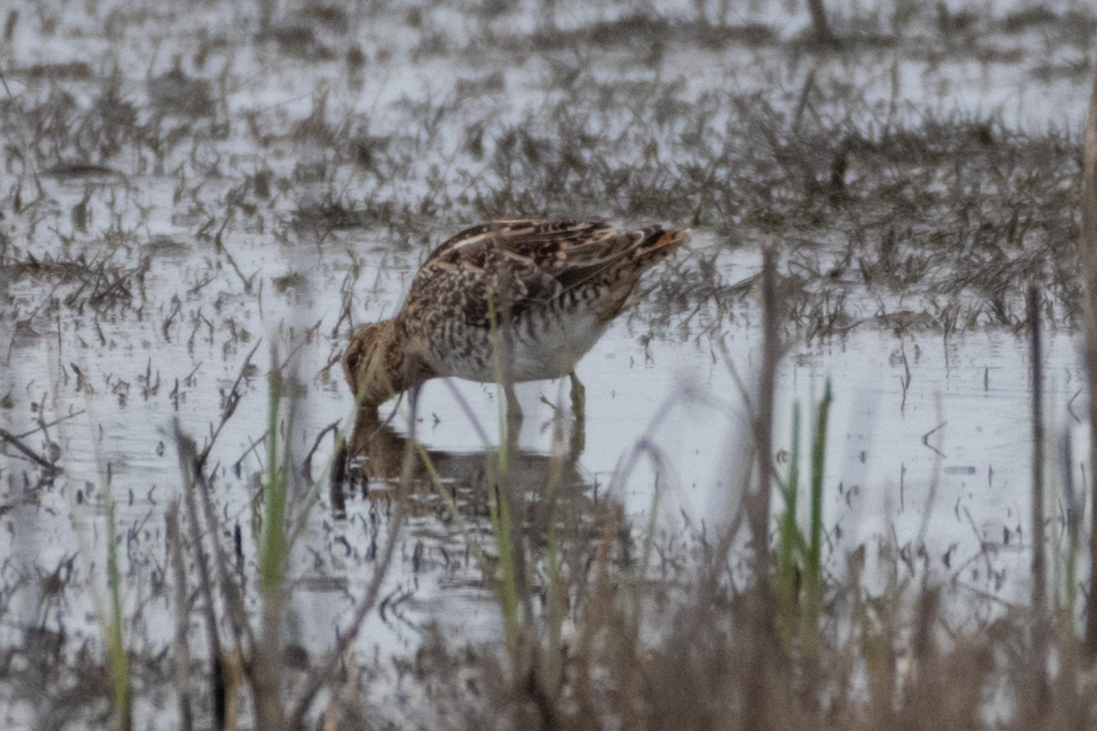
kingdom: Animalia
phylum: Chordata
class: Aves
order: Charadriiformes
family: Scolopacidae
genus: Gallinago
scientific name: Gallinago delicata
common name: Wilson's snipe
